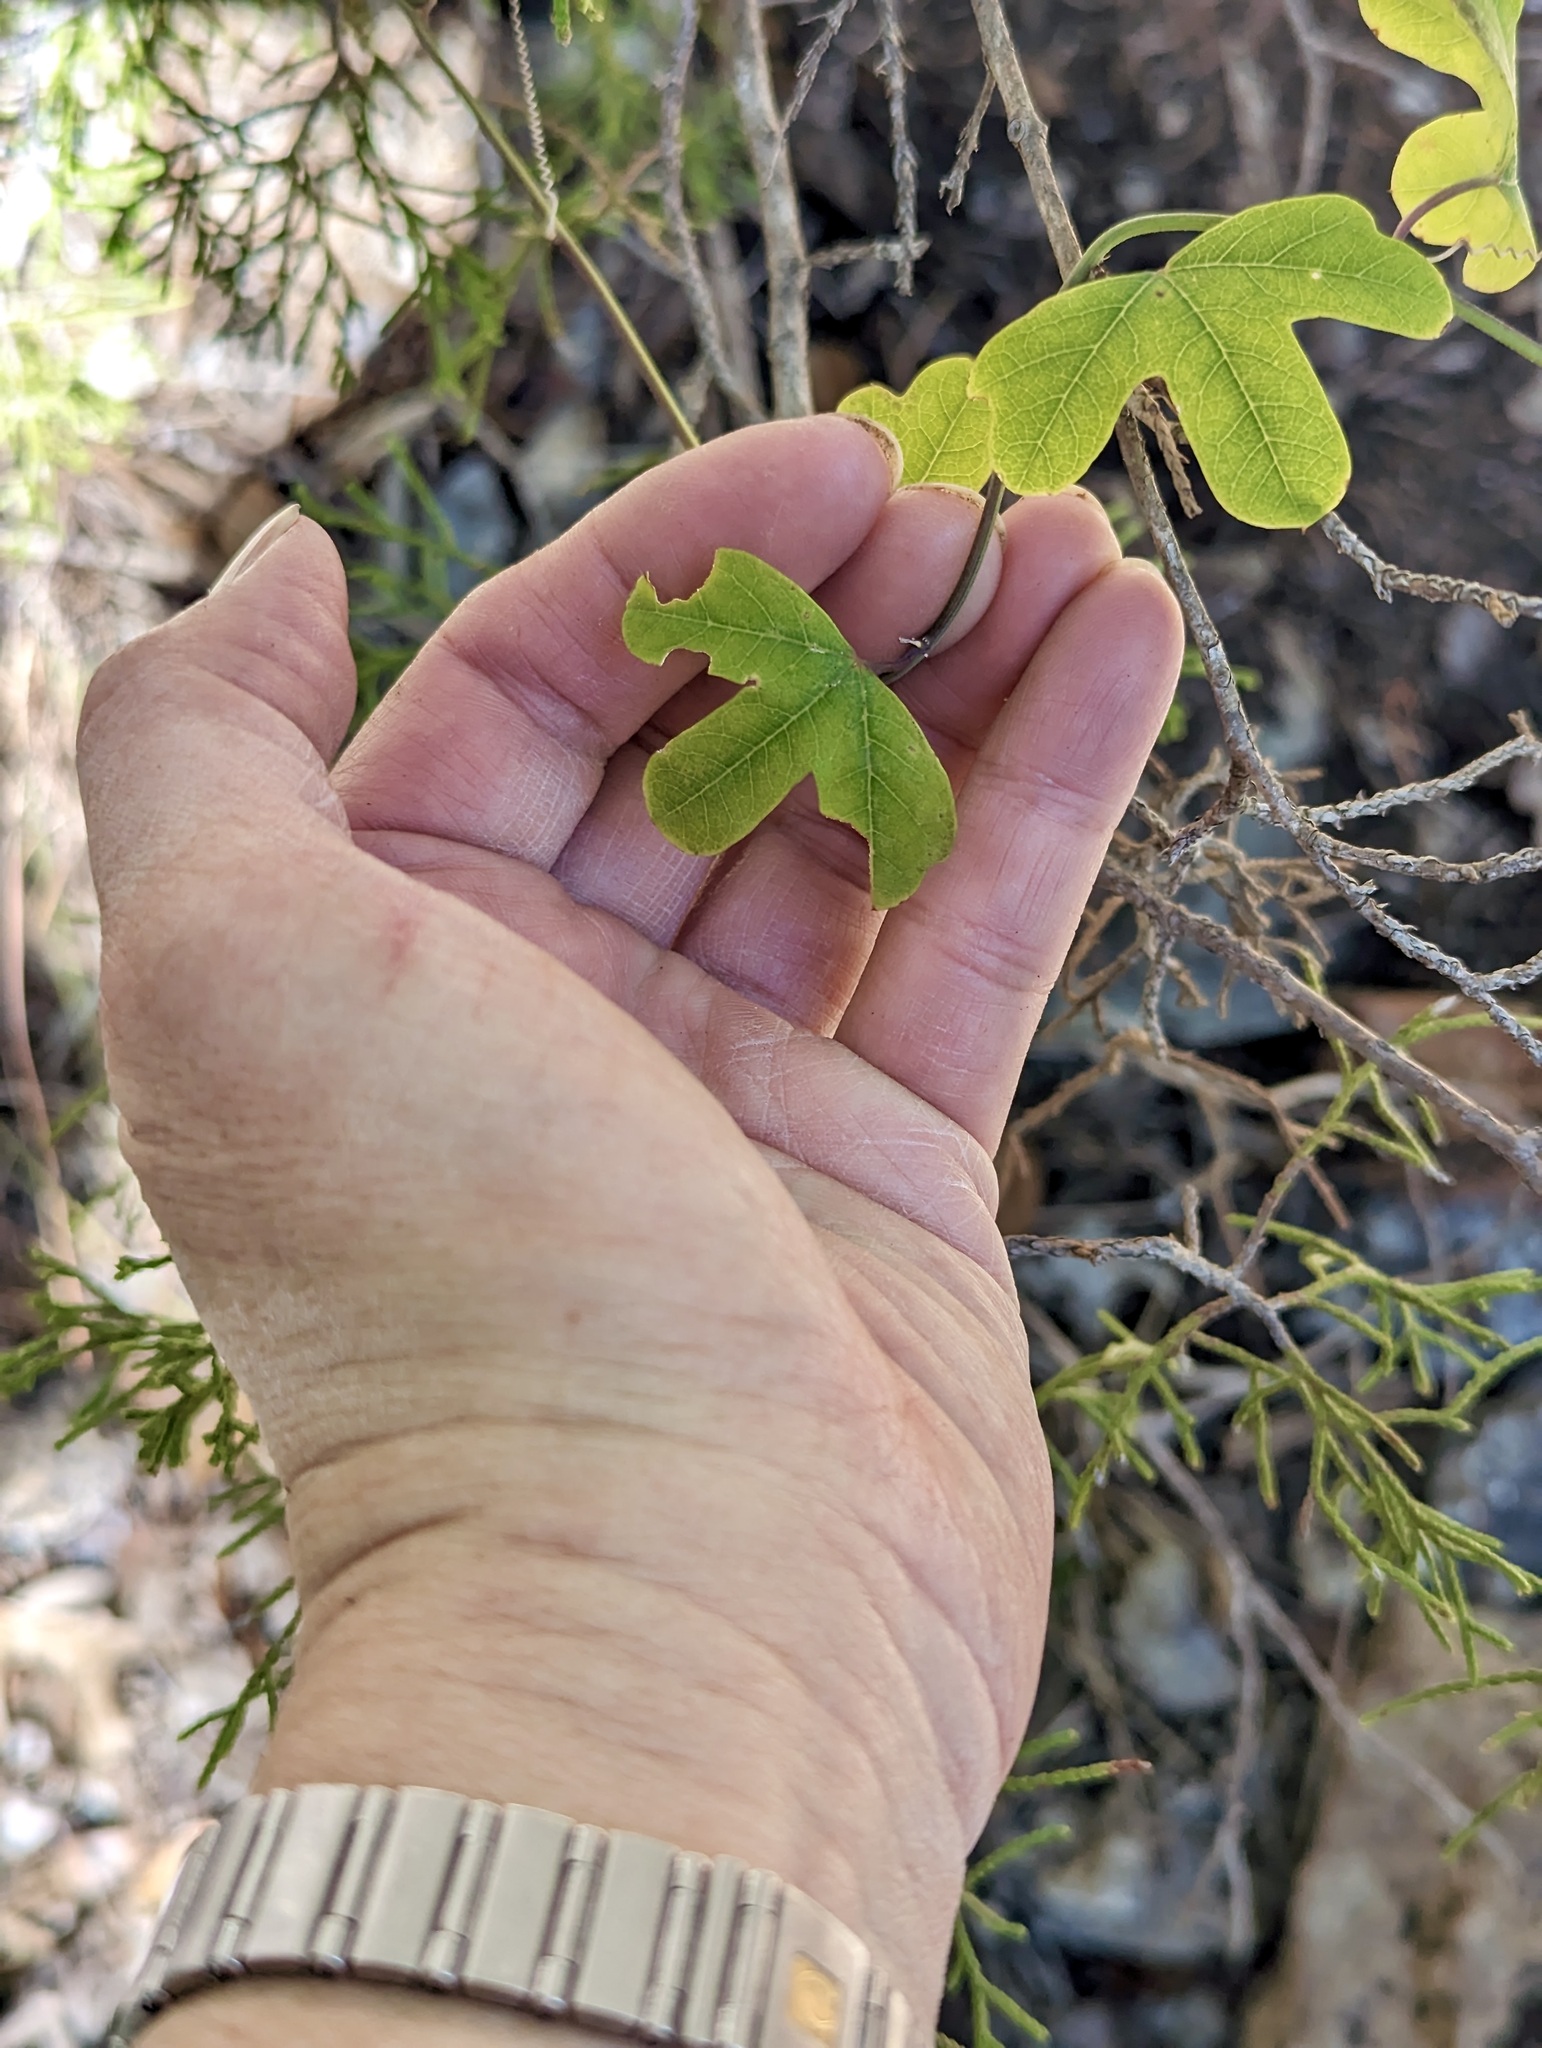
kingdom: Plantae
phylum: Tracheophyta
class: Magnoliopsida
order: Malpighiales
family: Passifloraceae
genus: Passiflora
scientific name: Passiflora affinis
